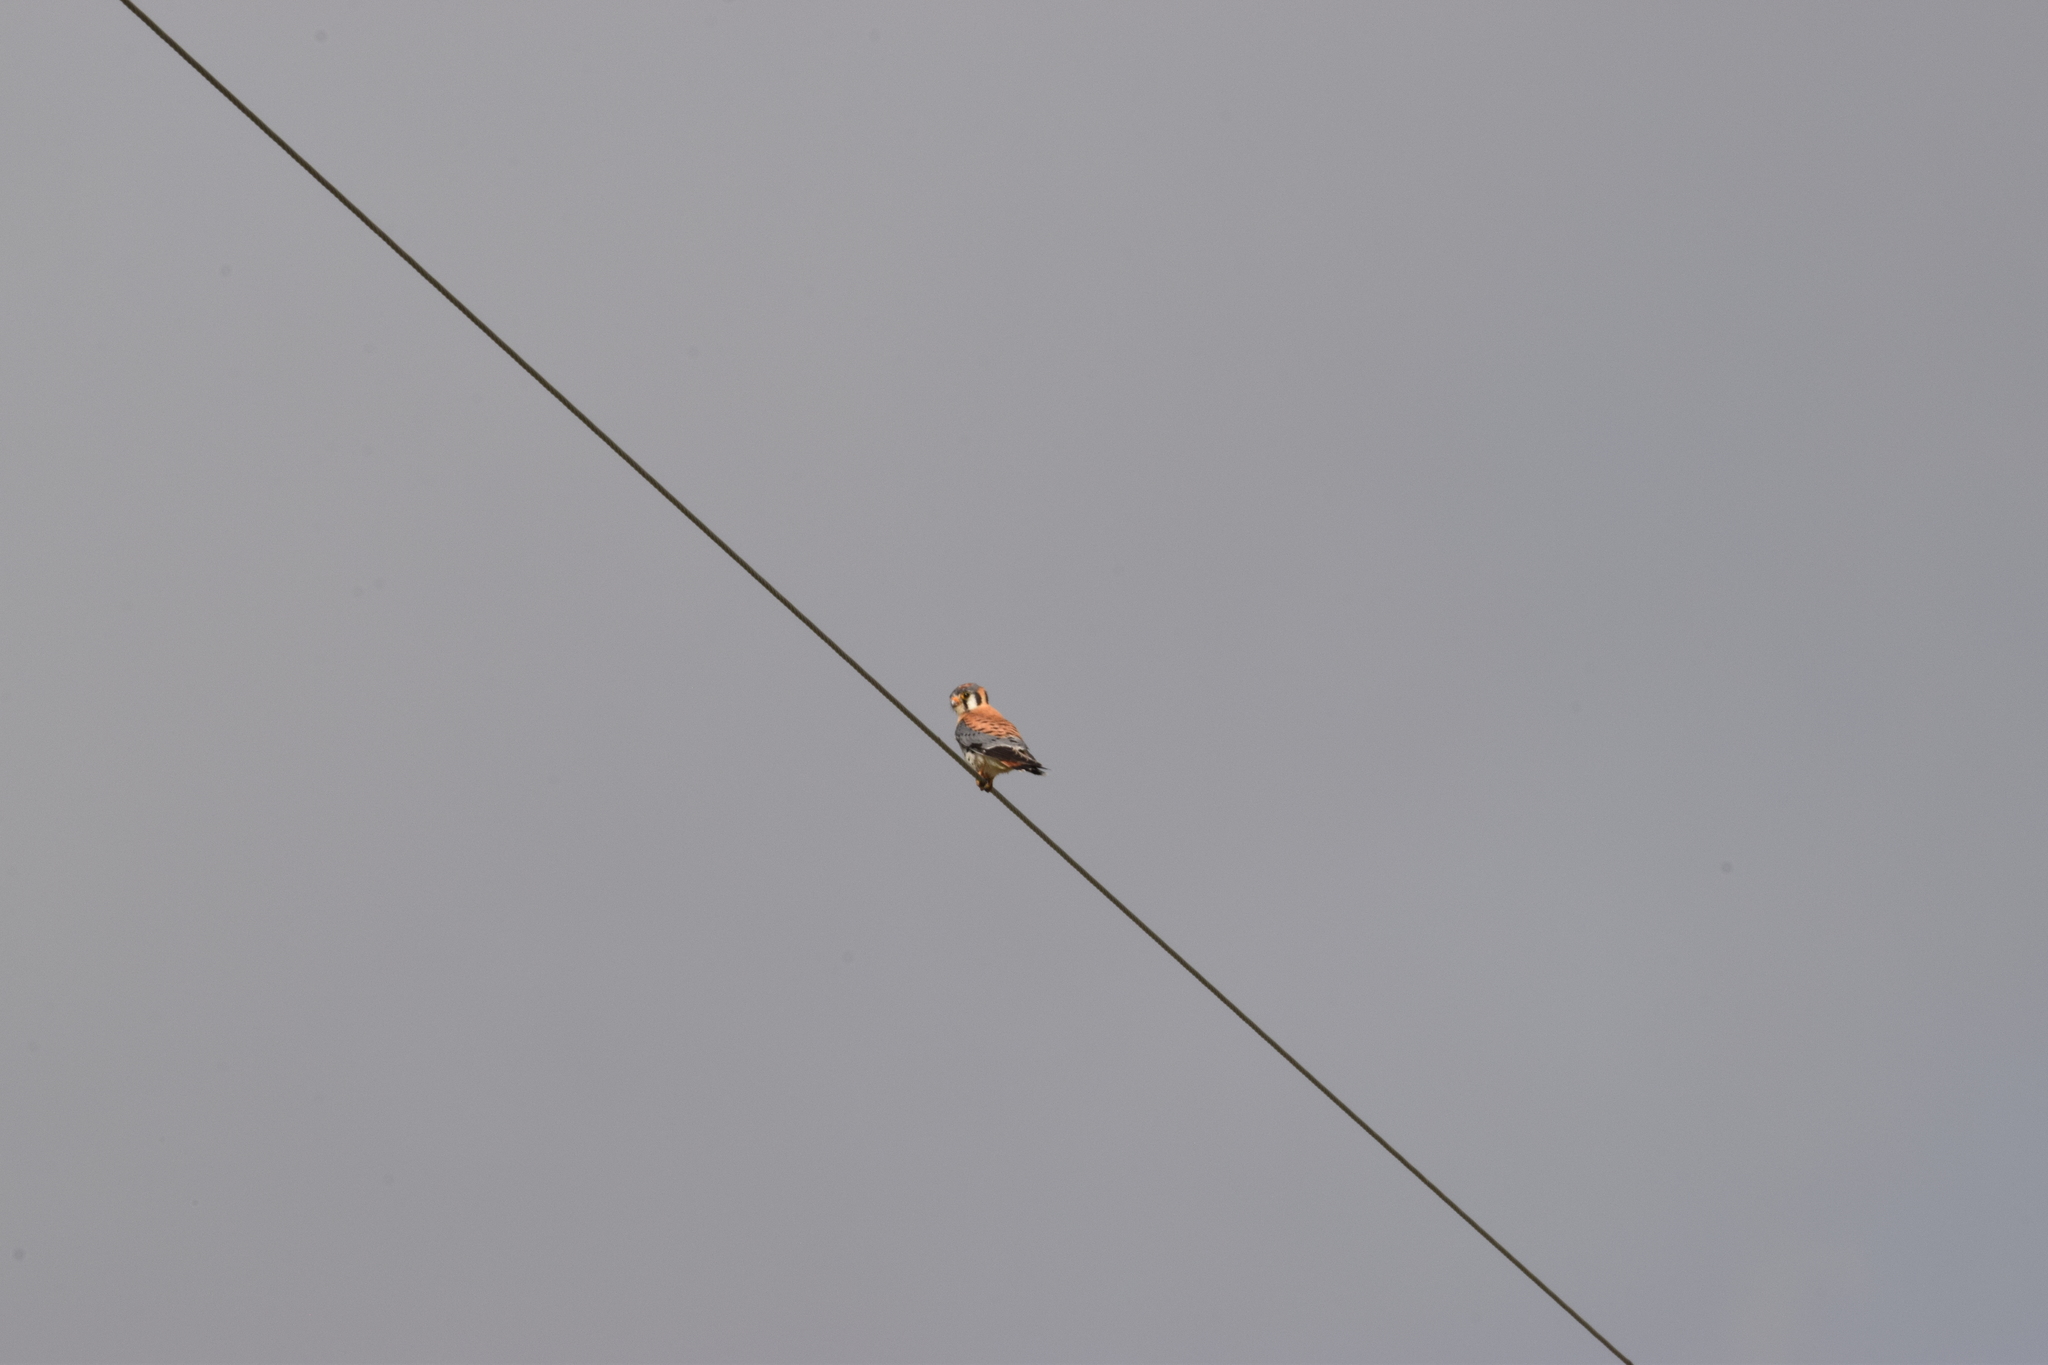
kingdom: Animalia
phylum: Chordata
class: Aves
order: Falconiformes
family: Falconidae
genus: Falco
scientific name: Falco sparverius
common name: American kestrel
